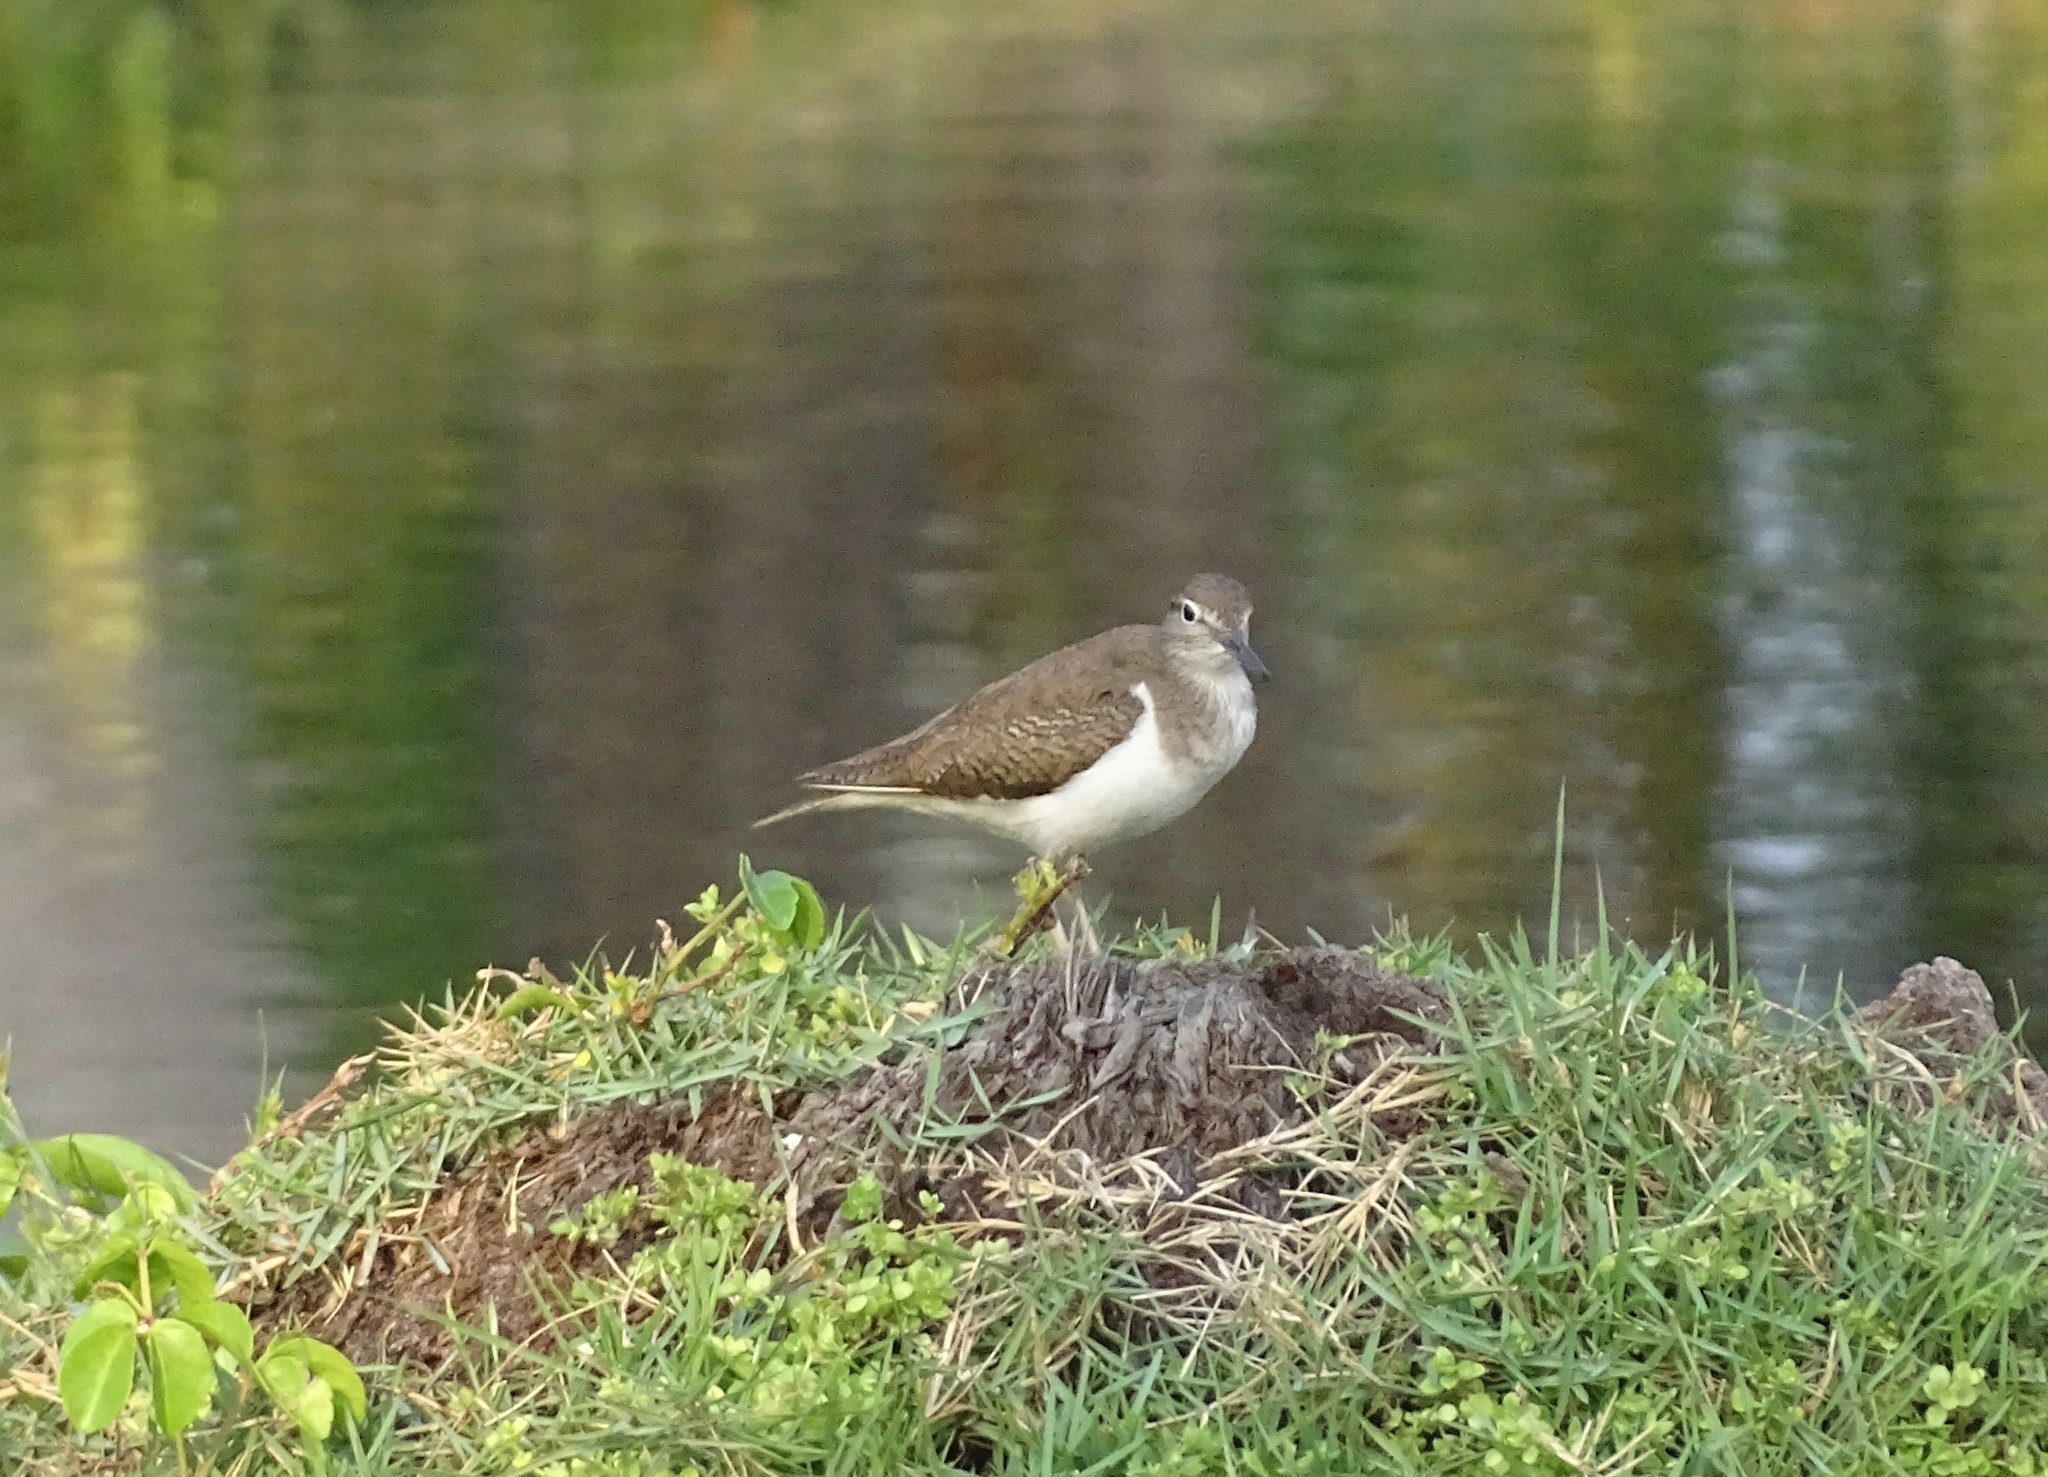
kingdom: Animalia
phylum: Chordata
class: Aves
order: Charadriiformes
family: Scolopacidae
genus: Actitis
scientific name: Actitis hypoleucos
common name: Common sandpiper
